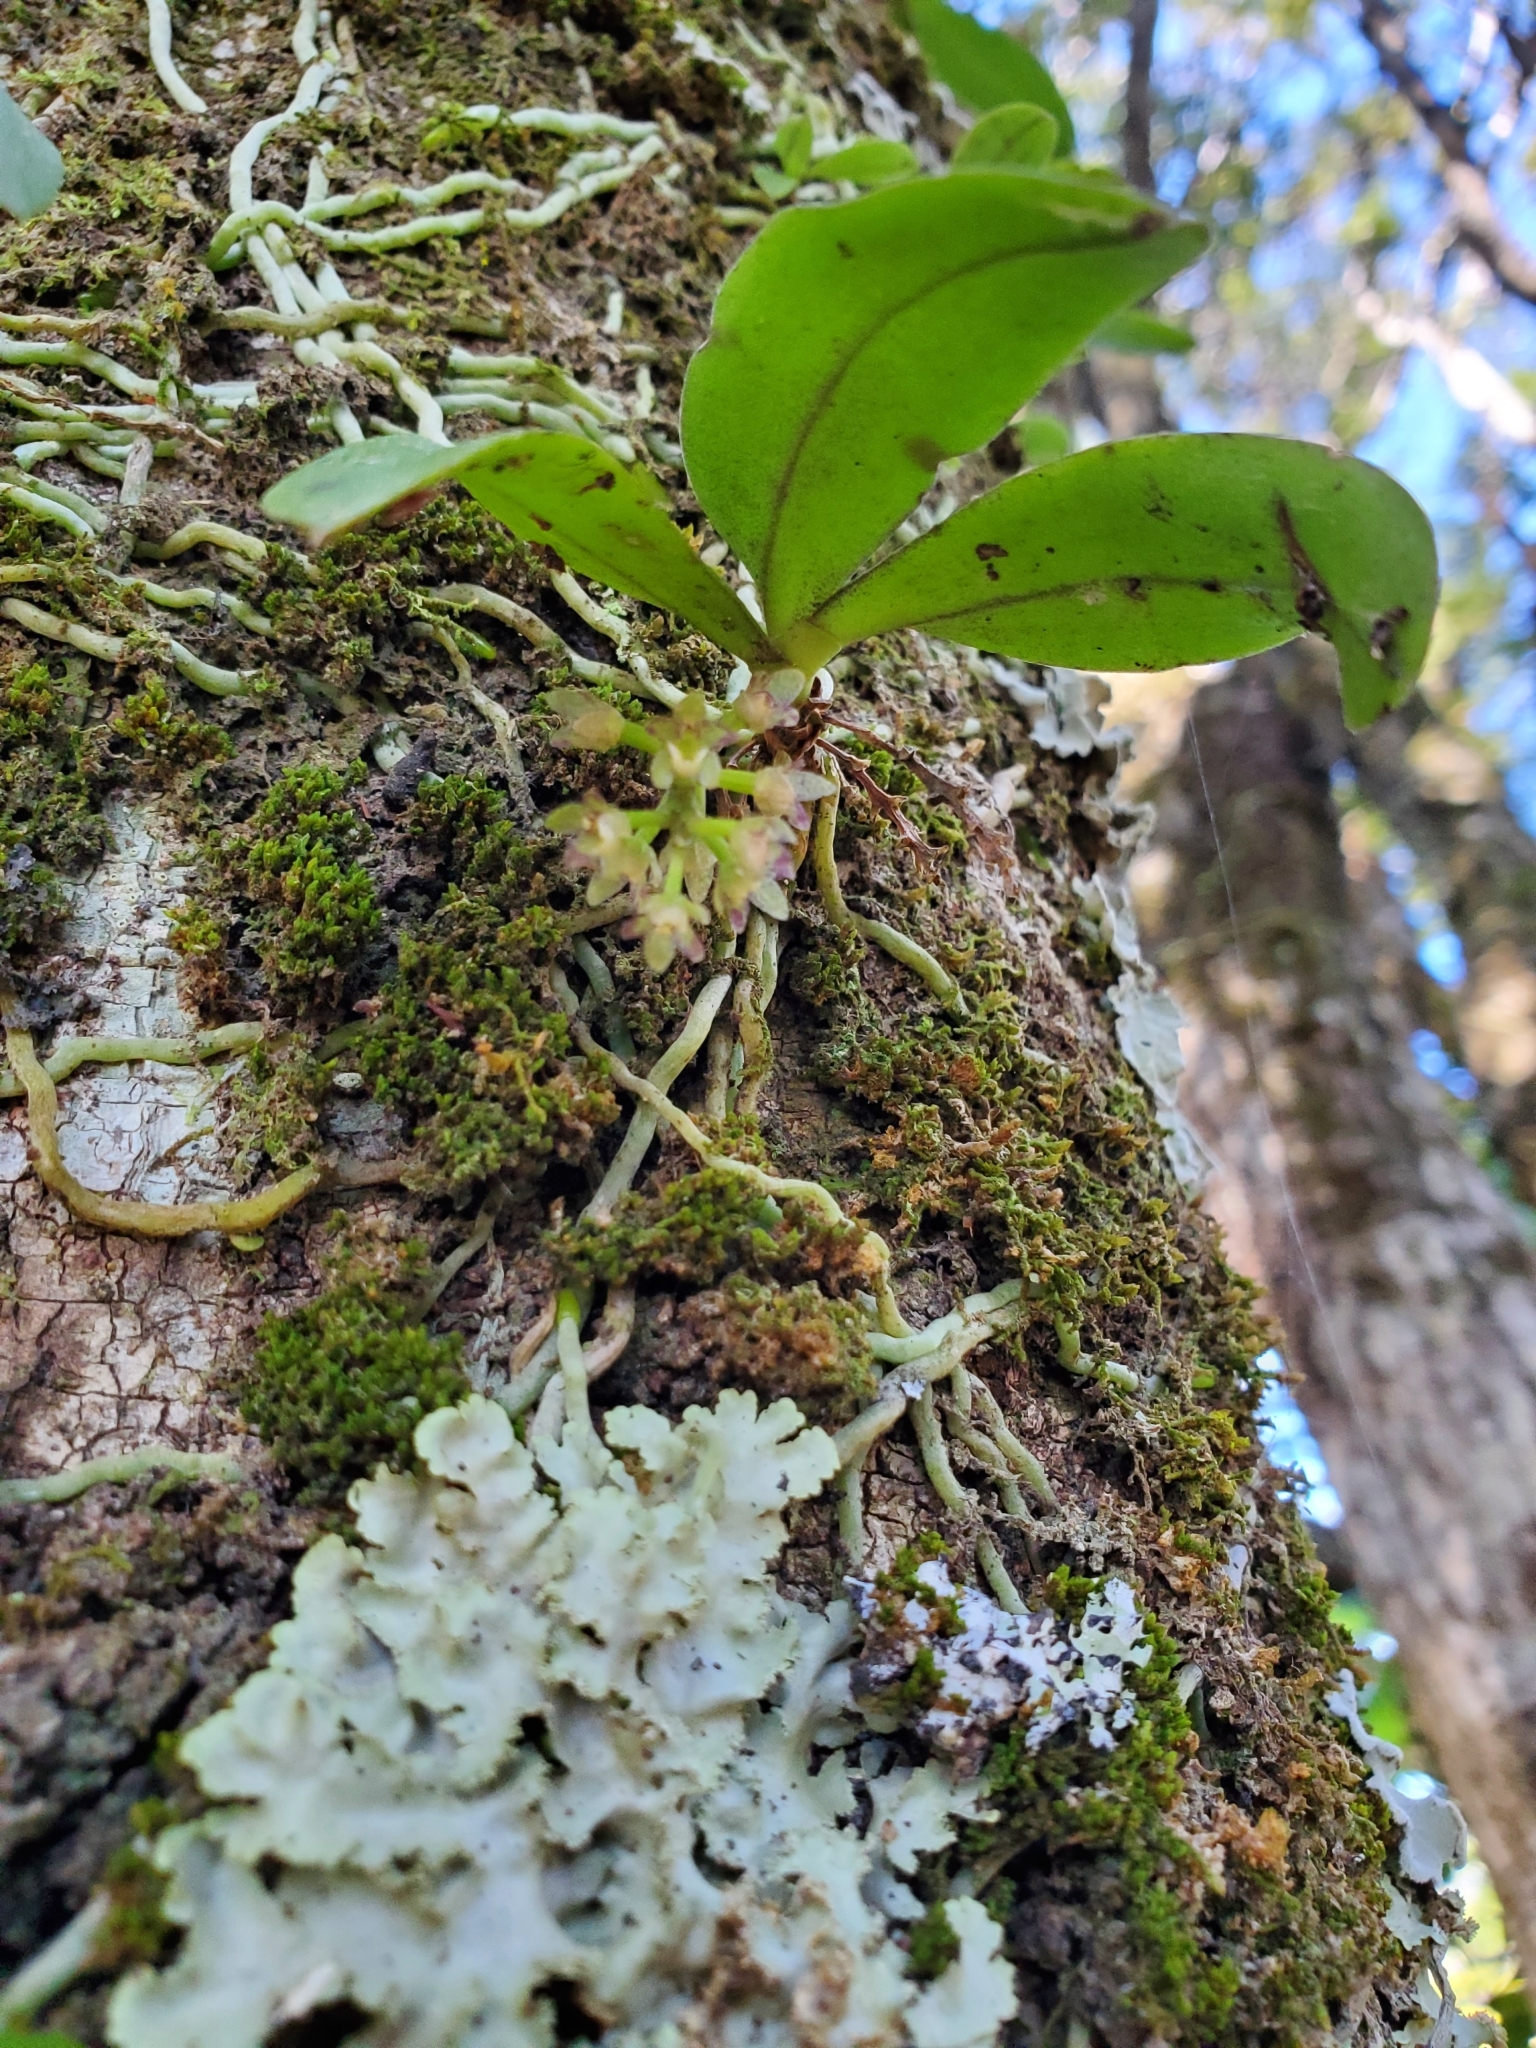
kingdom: Plantae
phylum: Tracheophyta
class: Liliopsida
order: Asparagales
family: Orchidaceae
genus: Drymoanthus
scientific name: Drymoanthus adversus
